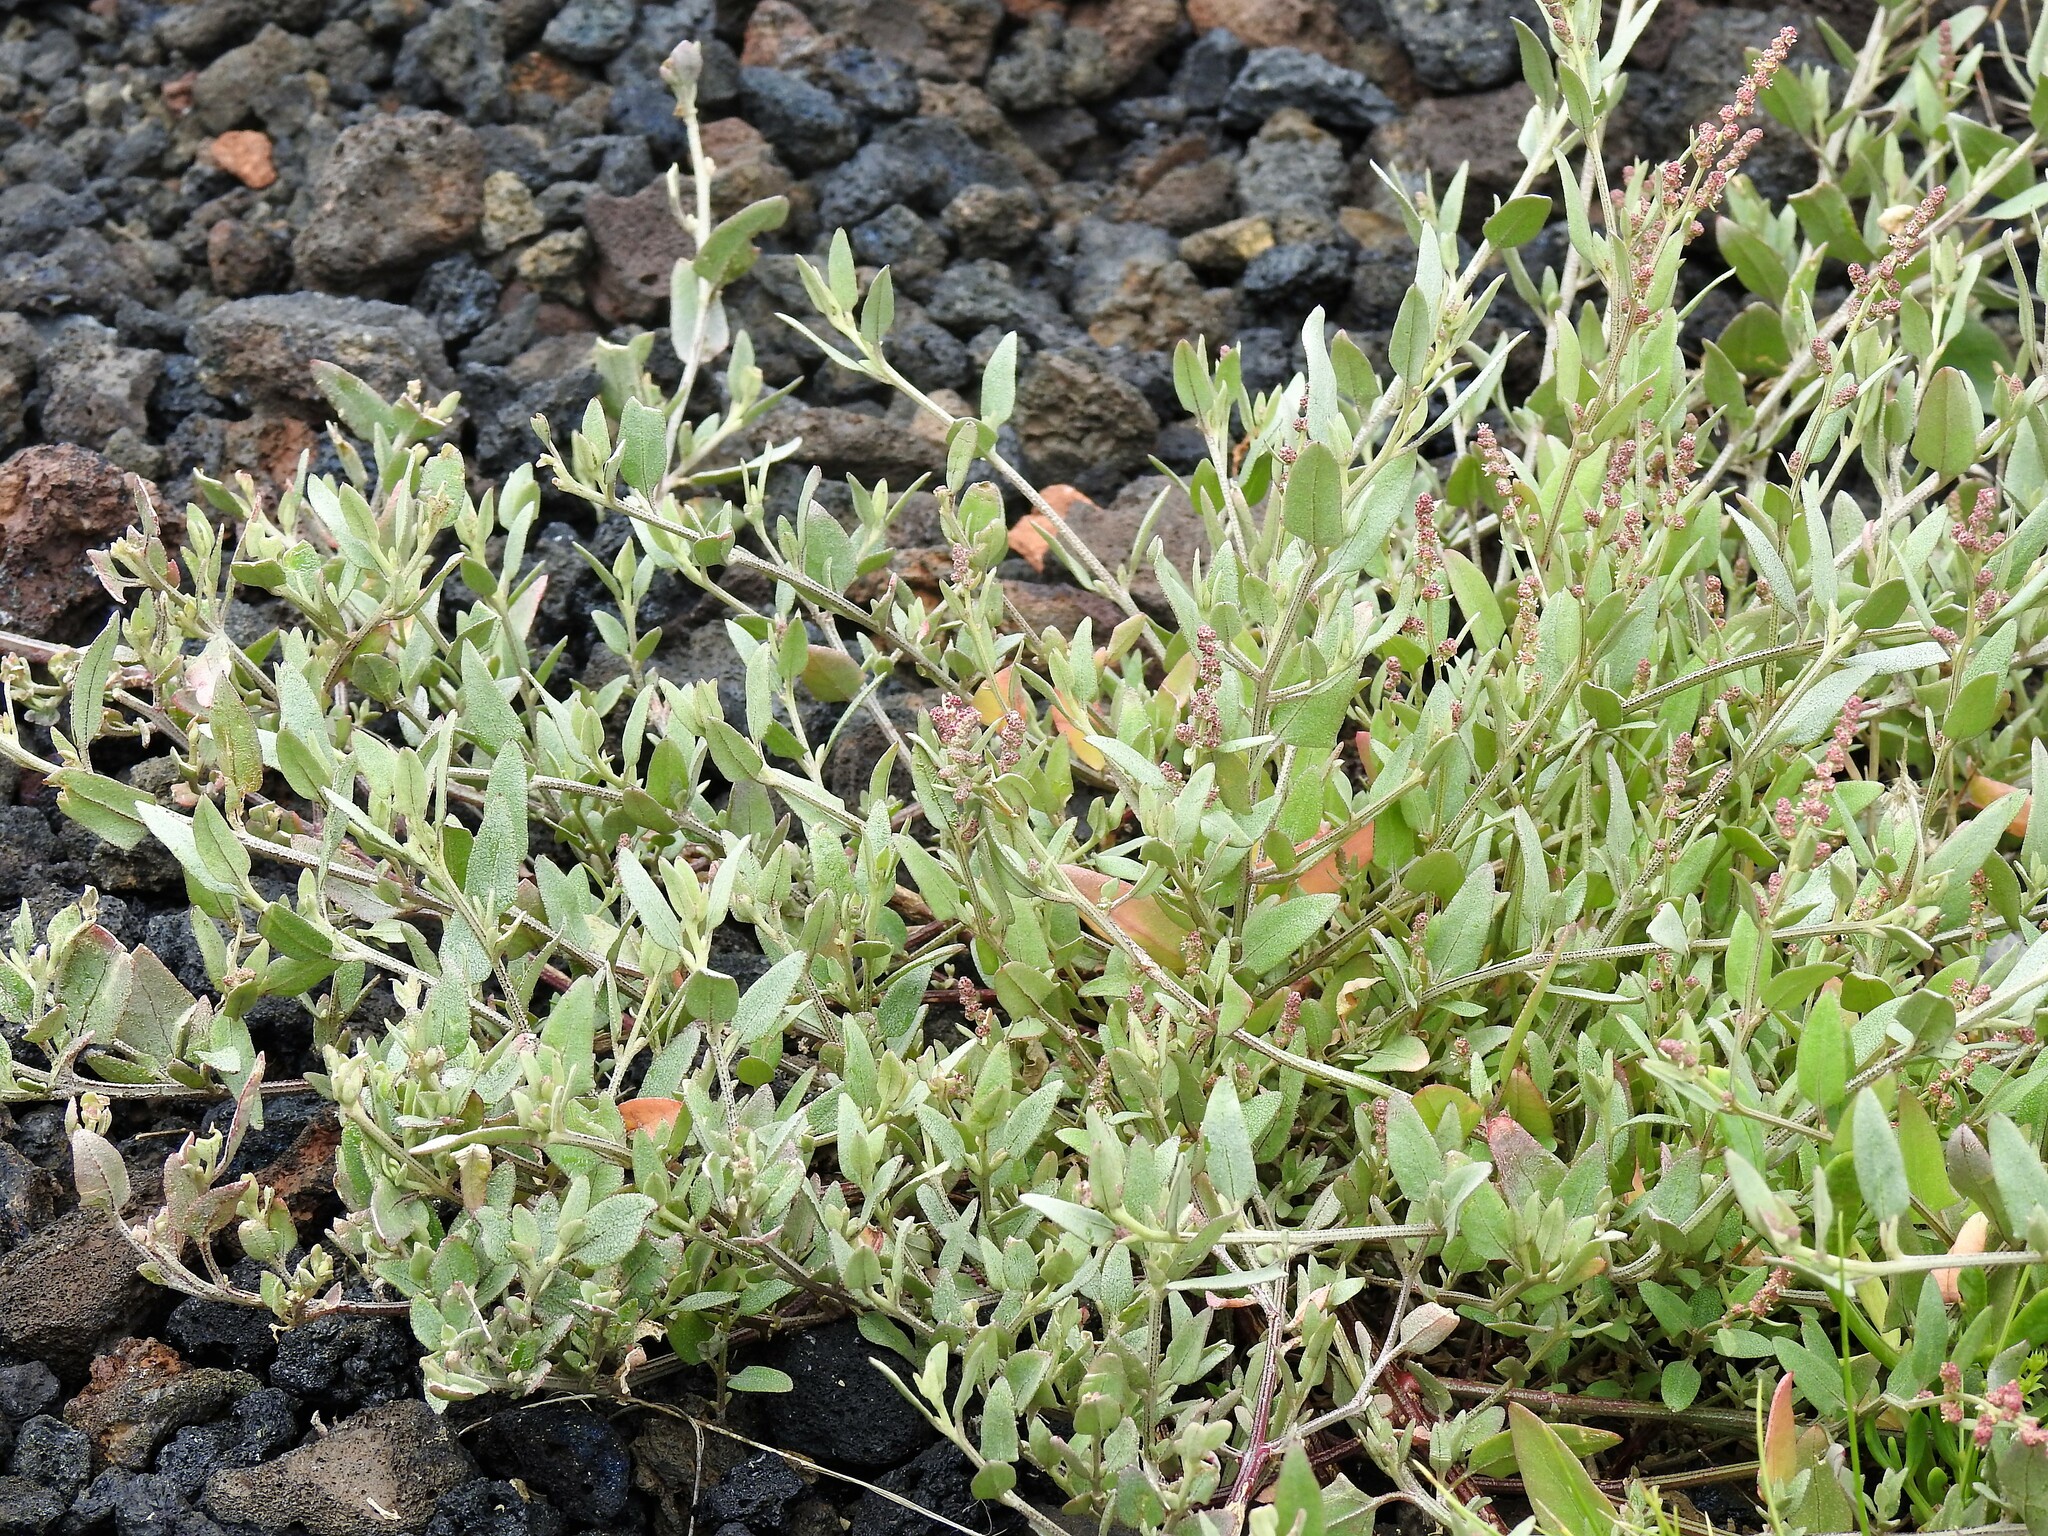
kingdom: Plantae
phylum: Tracheophyta
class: Magnoliopsida
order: Caryophyllales
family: Amaranthaceae
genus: Atriplex
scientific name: Atriplex prostrata
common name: Spear-leaved orache
